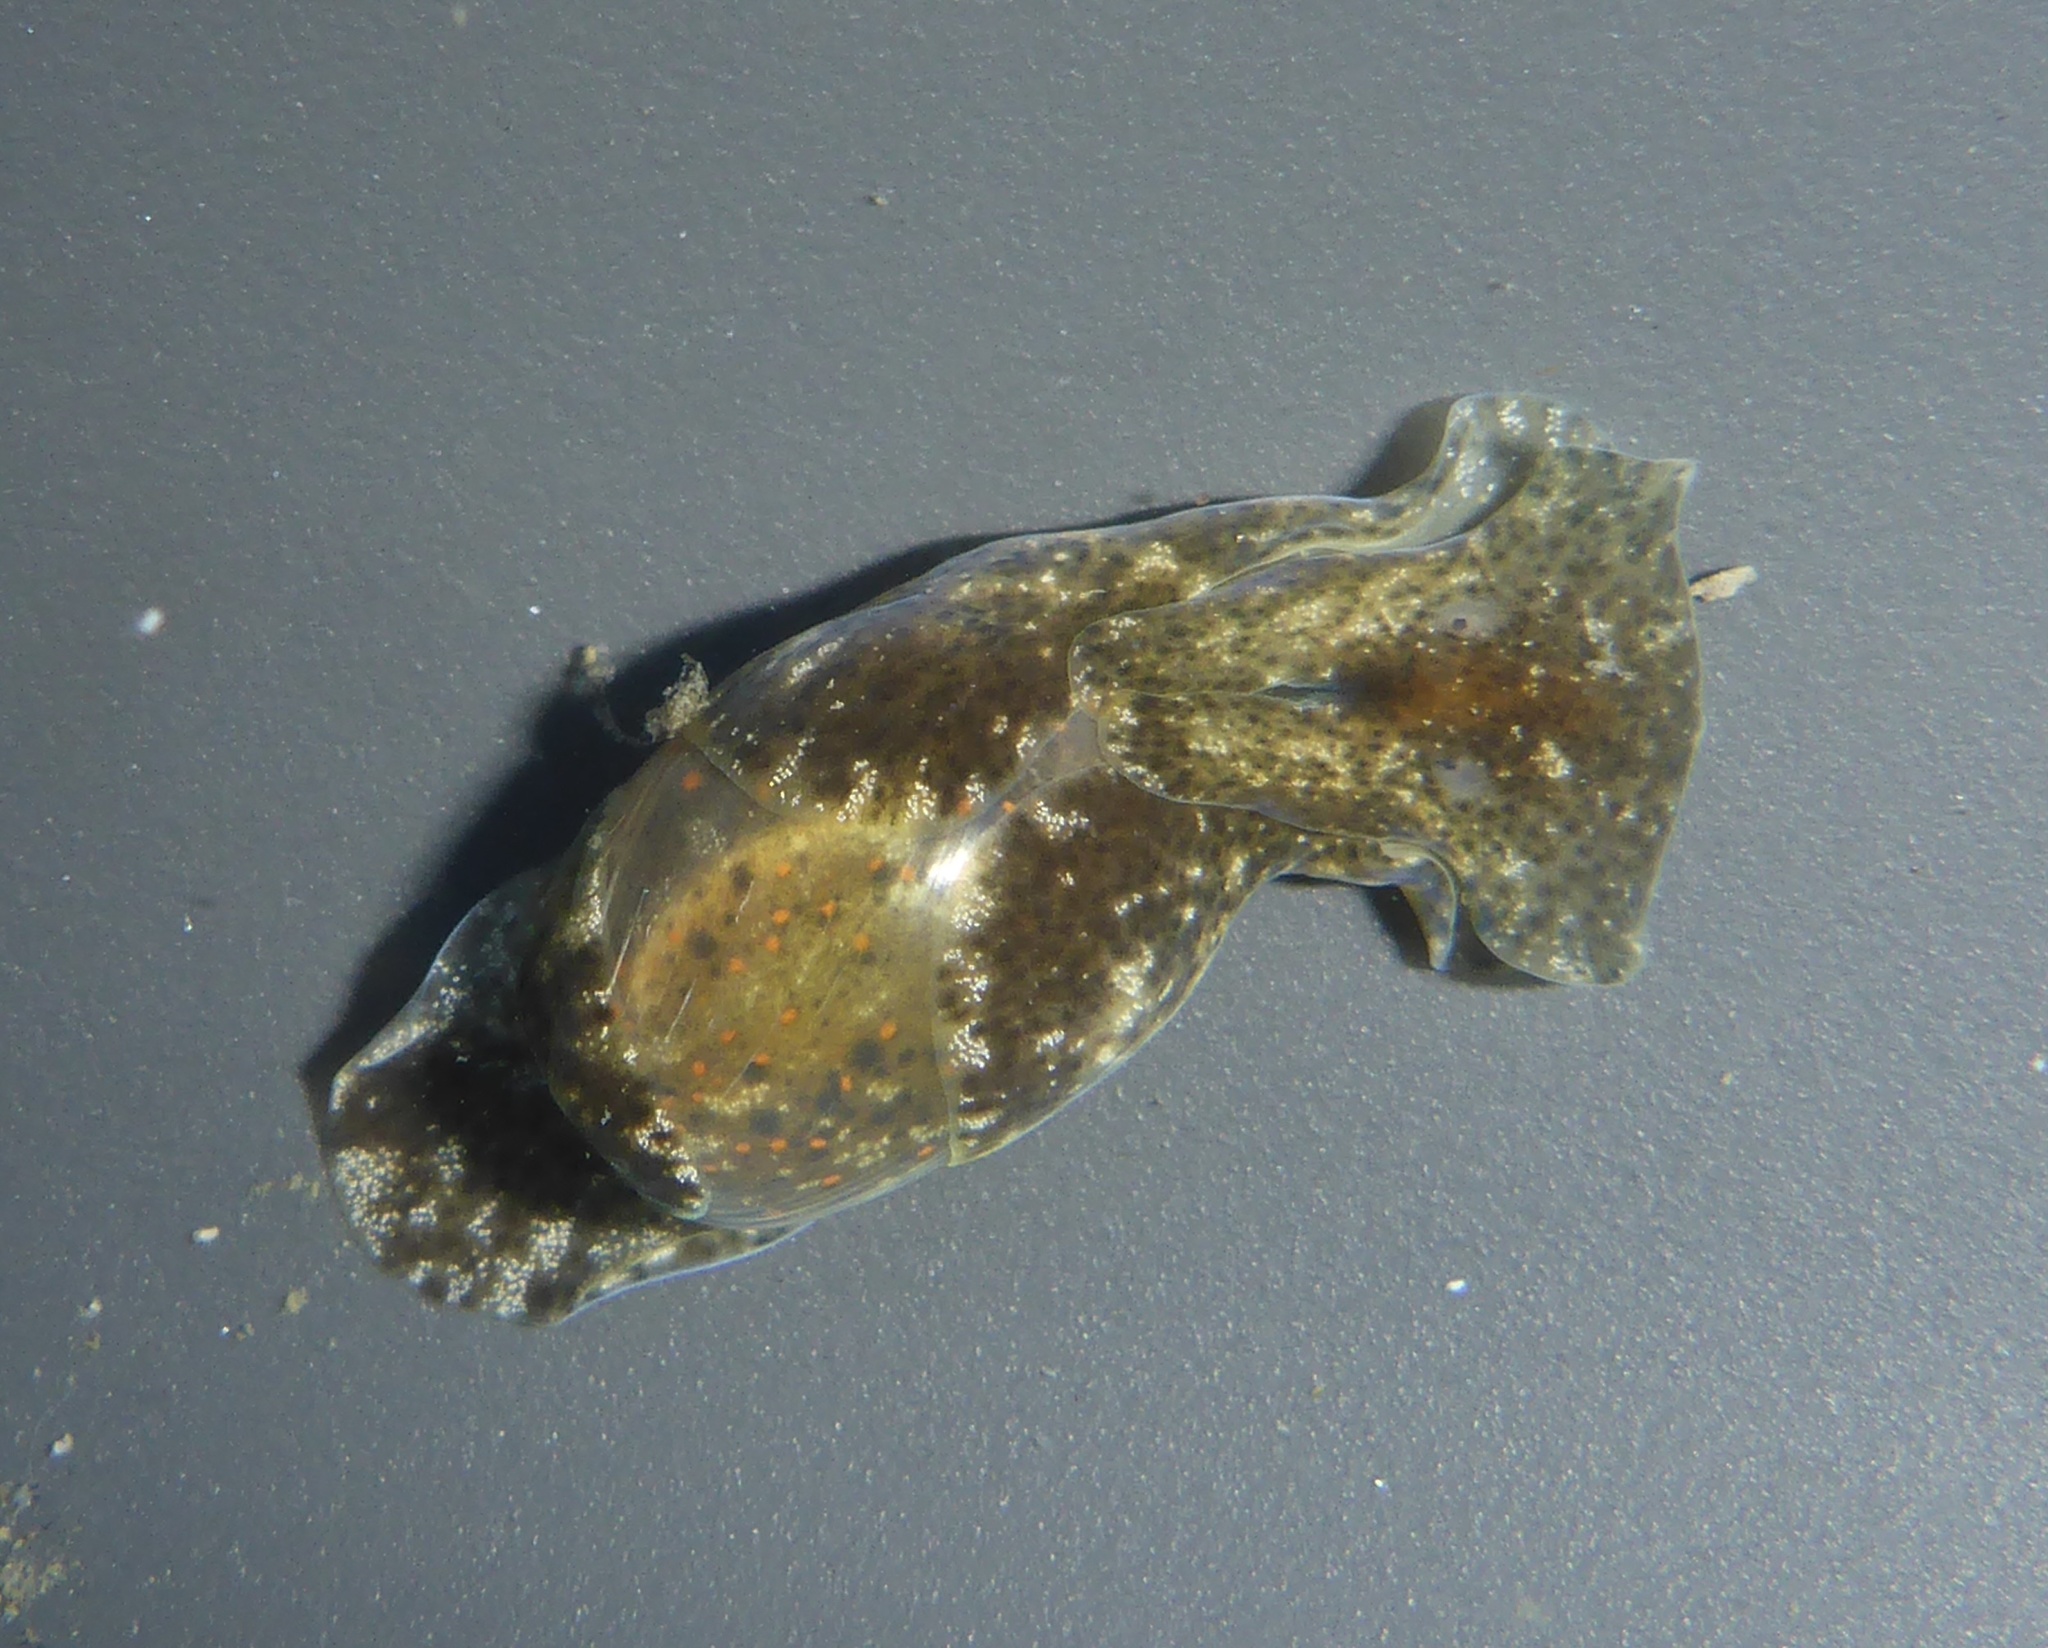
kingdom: Animalia
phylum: Mollusca
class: Gastropoda
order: Cephalaspidea
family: Haminoeidae
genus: Haloa
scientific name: Haloa japonica
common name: Japanese bubble snail
